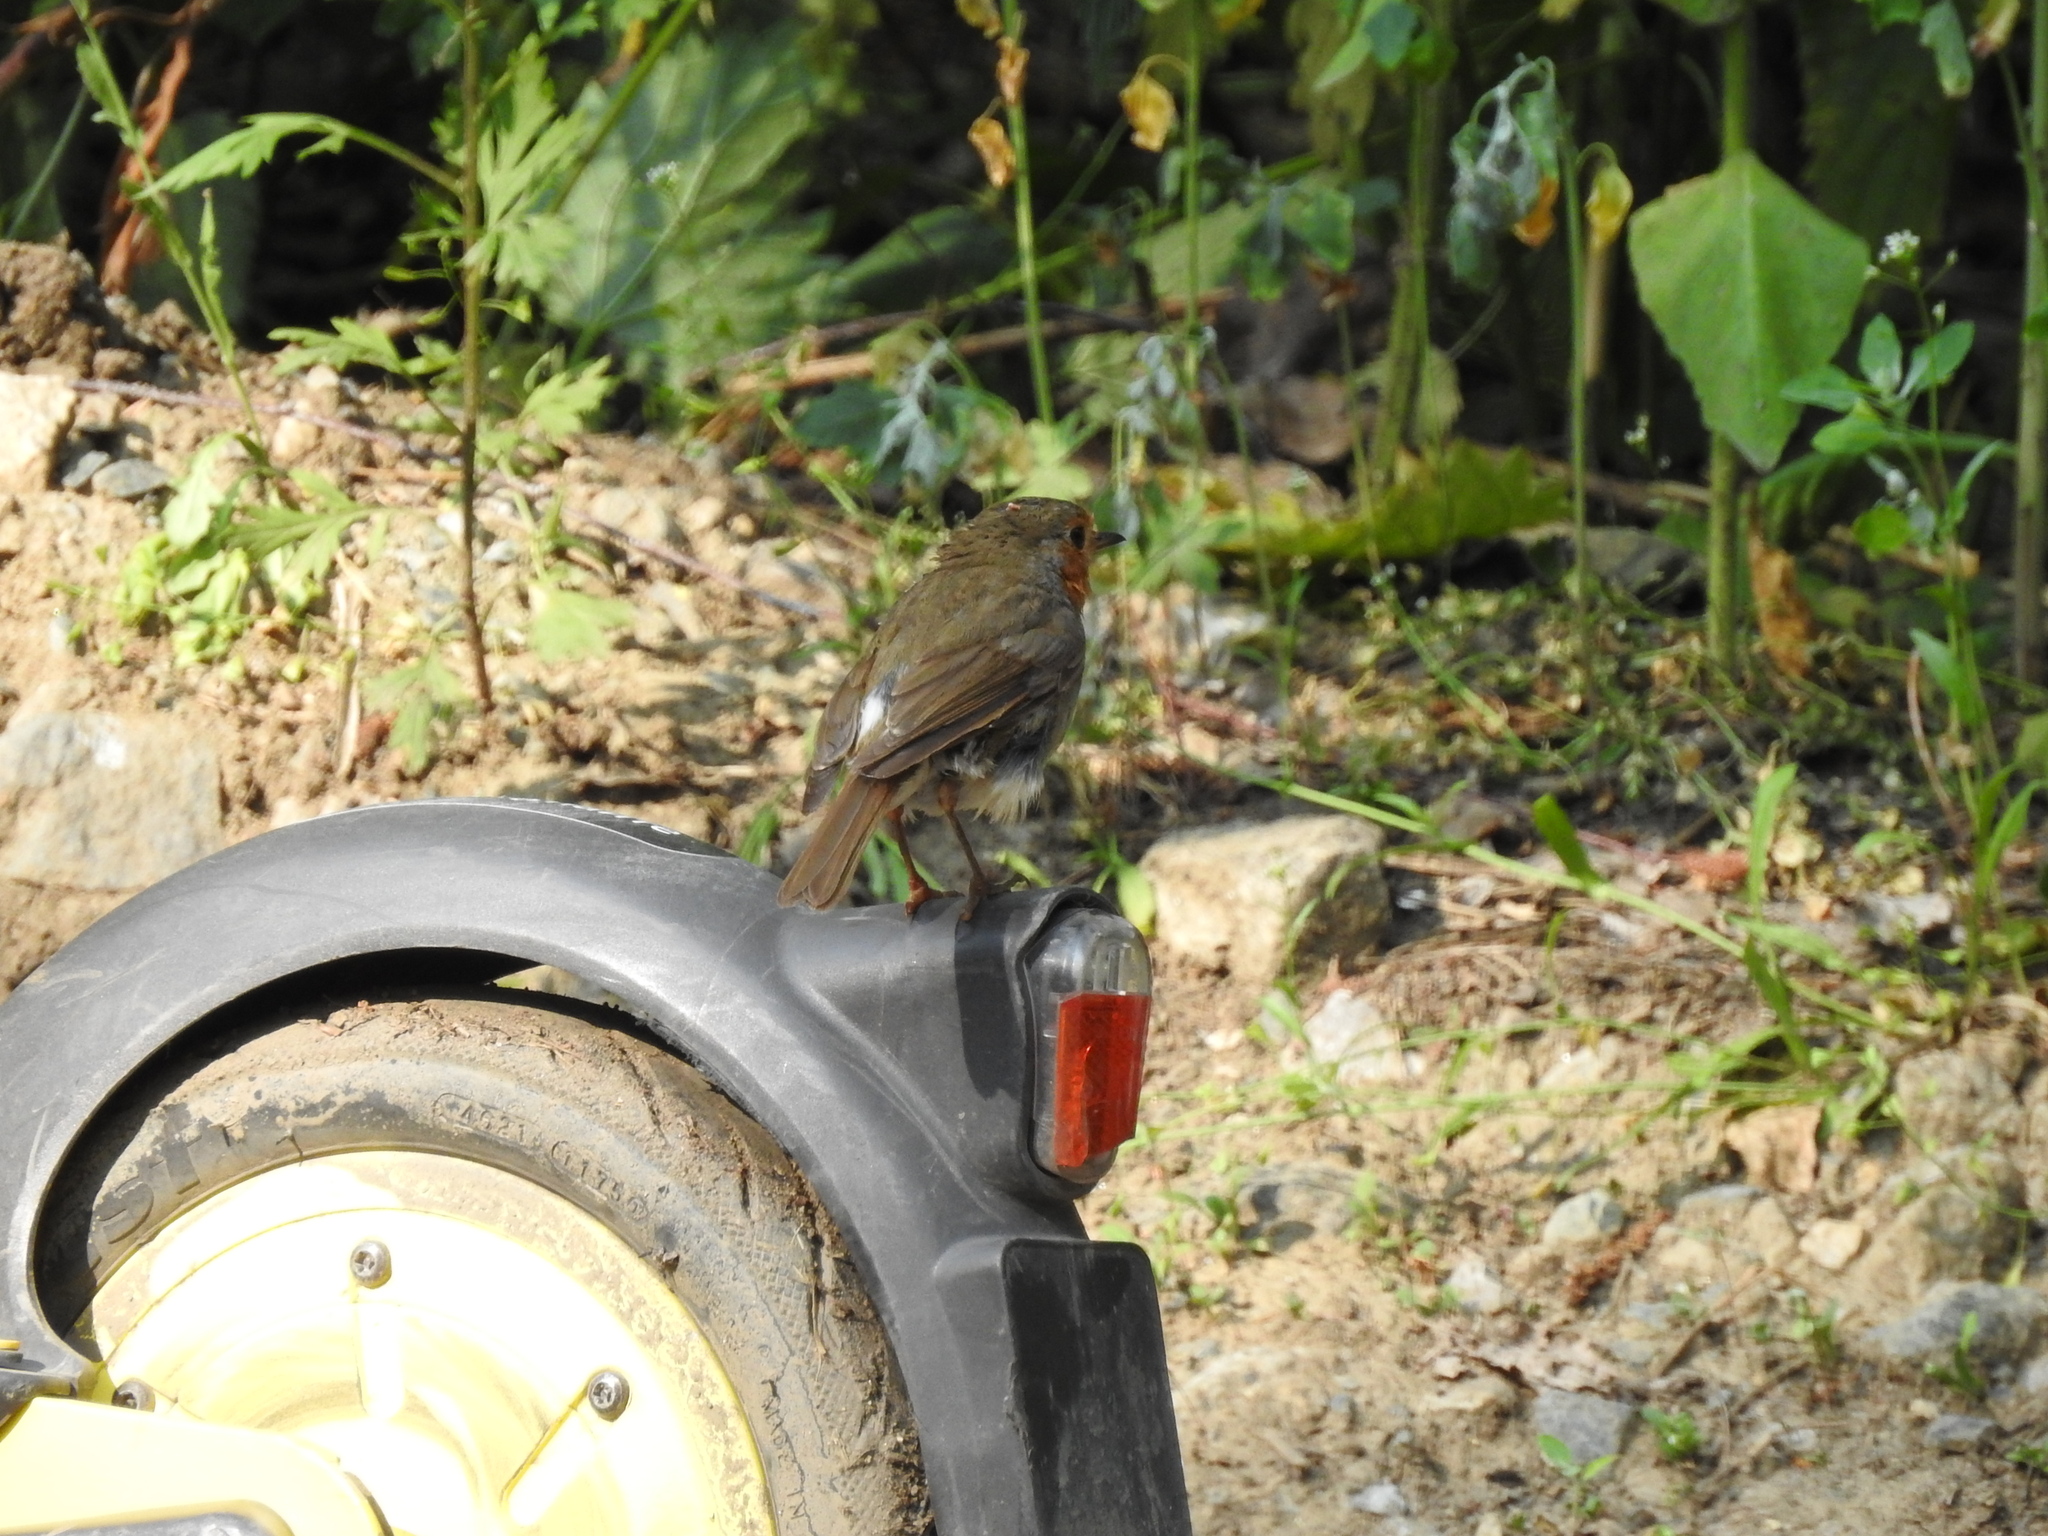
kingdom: Animalia
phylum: Chordata
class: Aves
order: Passeriformes
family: Muscicapidae
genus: Erithacus
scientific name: Erithacus rubecula
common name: European robin
